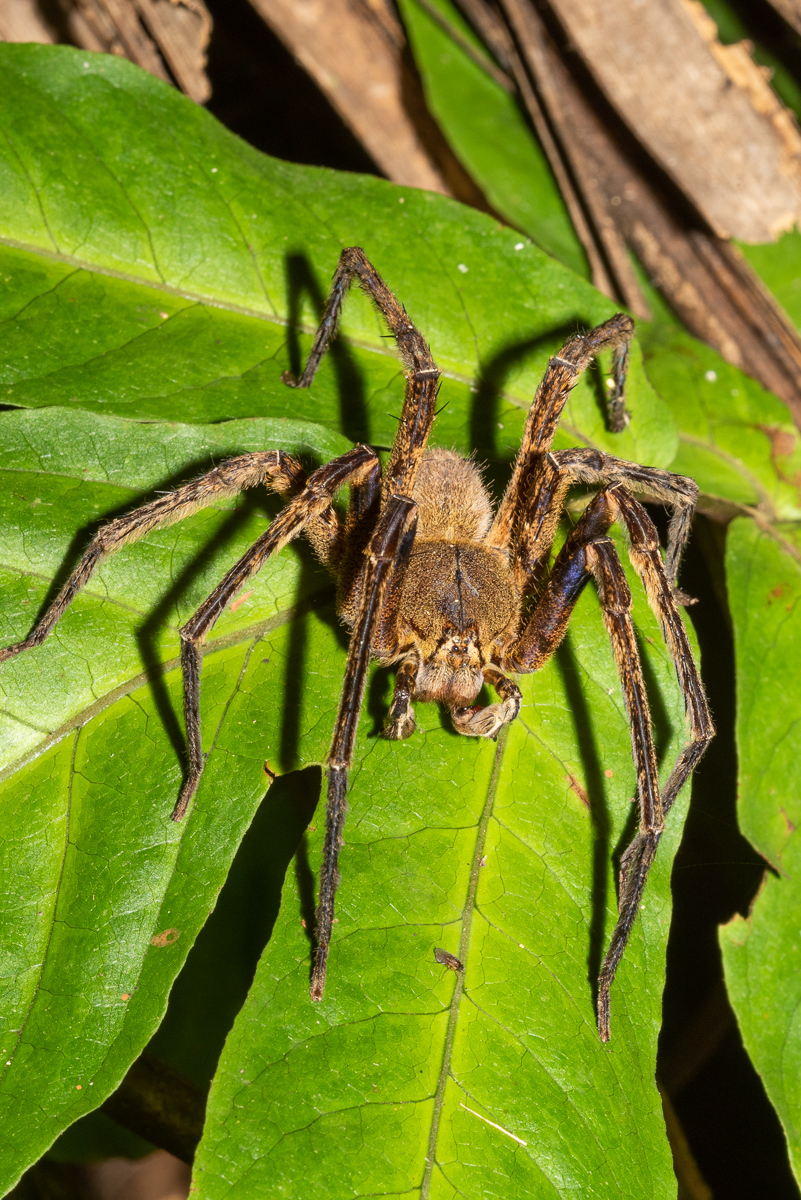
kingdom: Animalia
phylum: Arthropoda
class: Arachnida
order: Araneae
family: Ctenidae
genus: Phoneutria
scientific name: Phoneutria fera
